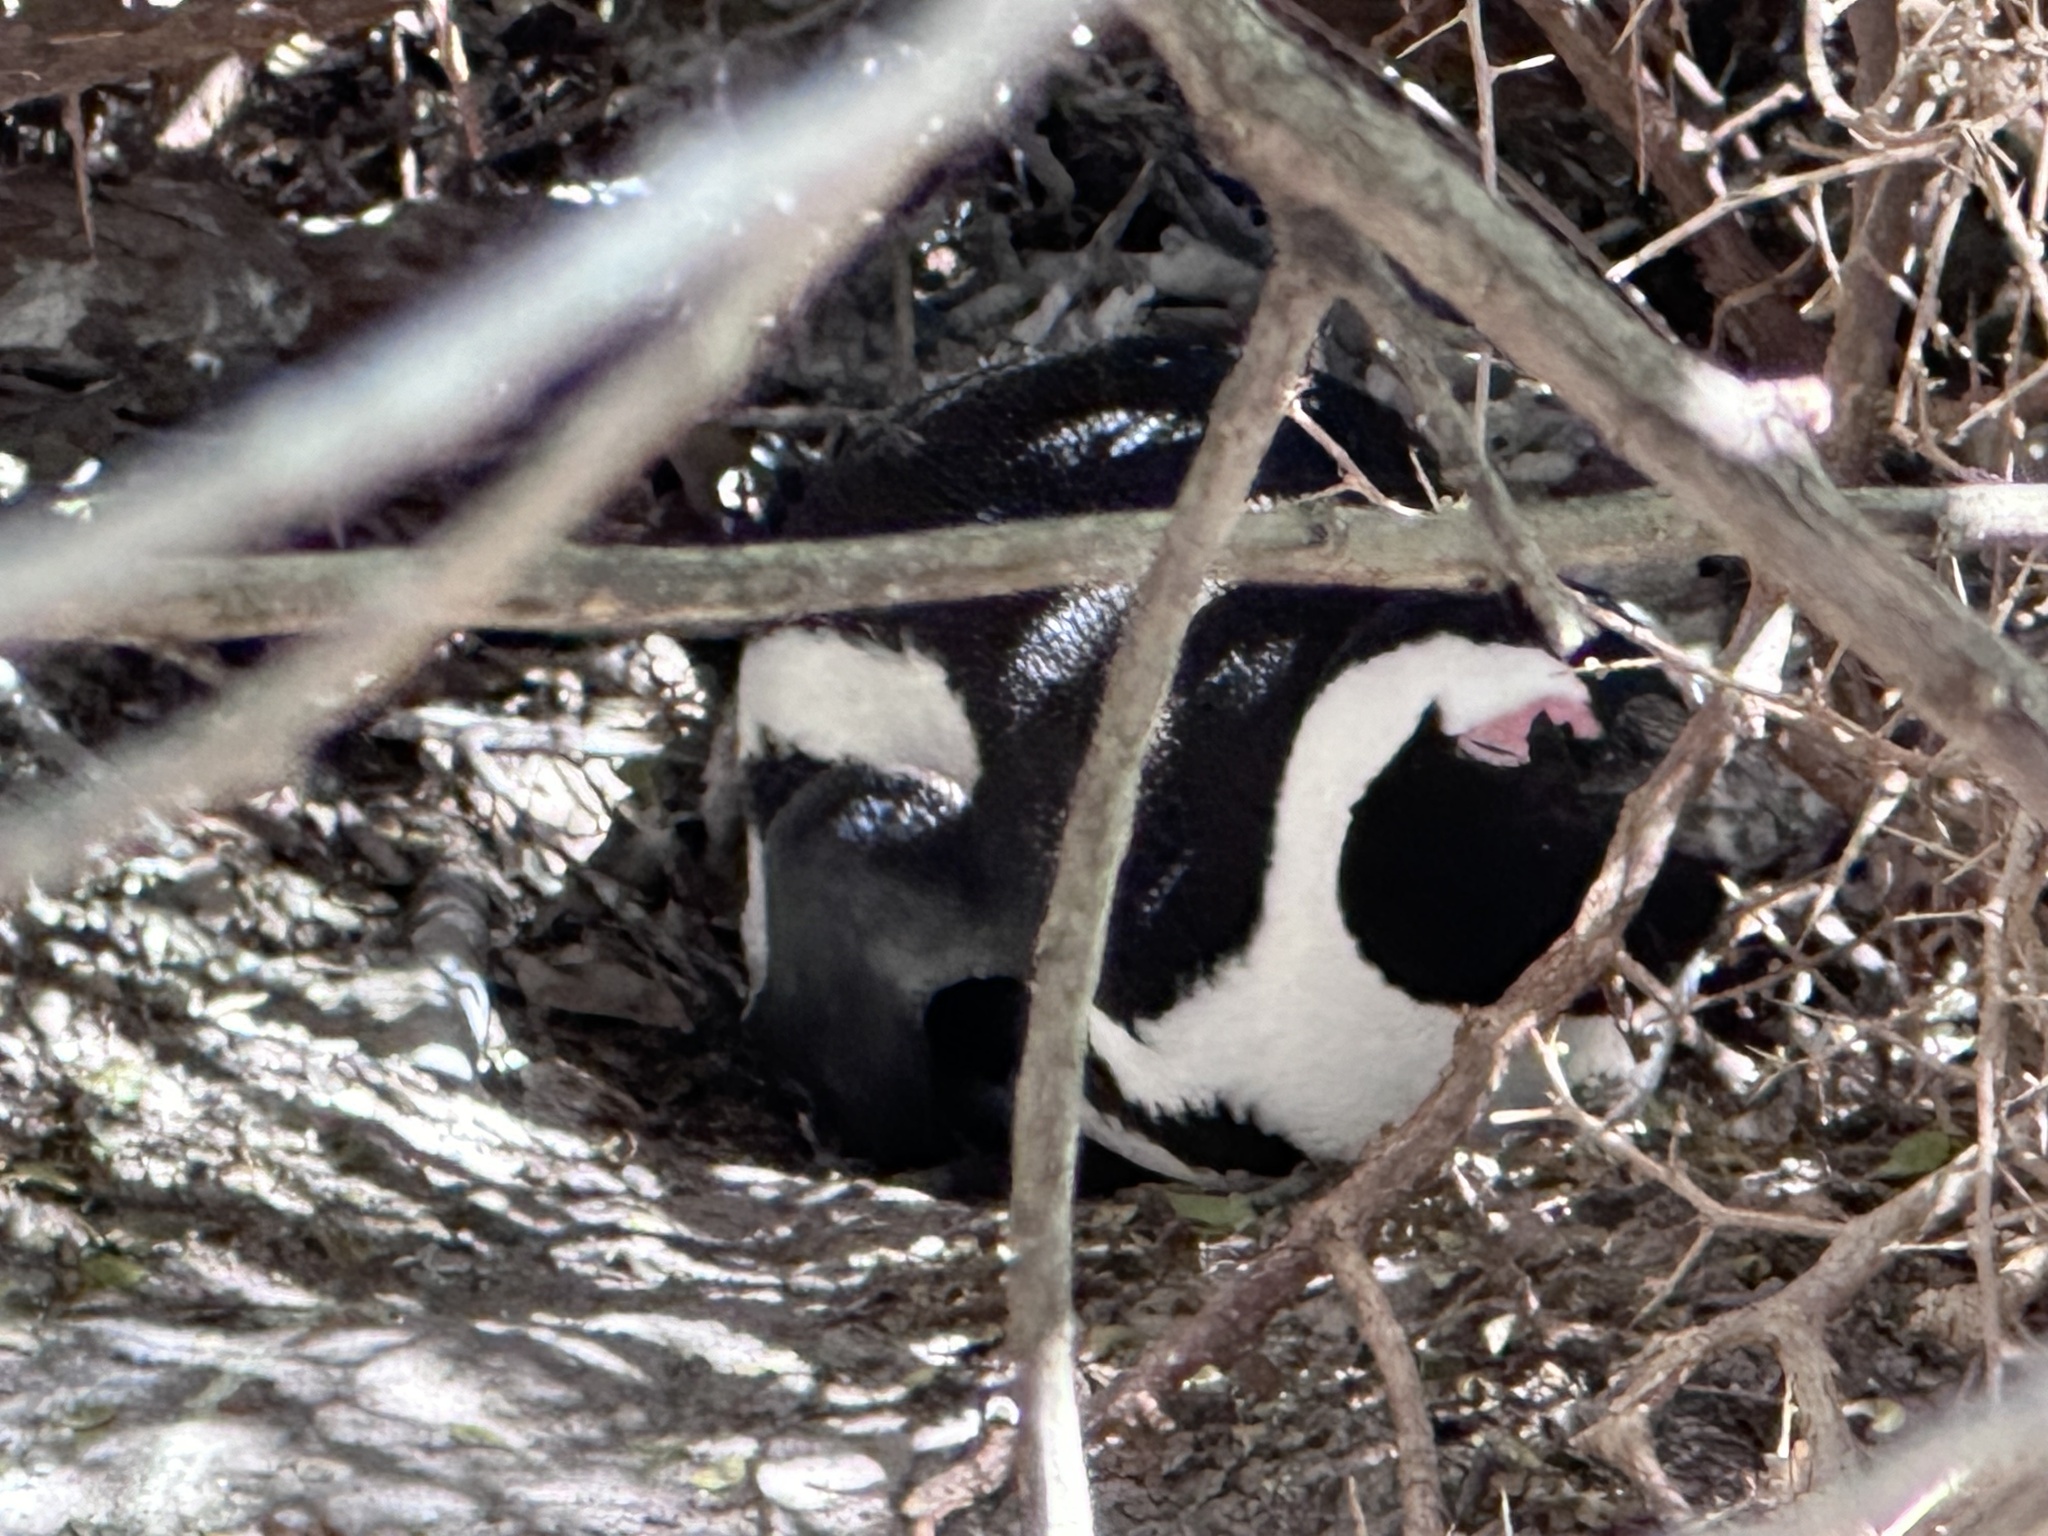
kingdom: Animalia
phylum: Chordata
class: Aves
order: Sphenisciformes
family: Spheniscidae
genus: Spheniscus
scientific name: Spheniscus demersus
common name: African penguin
